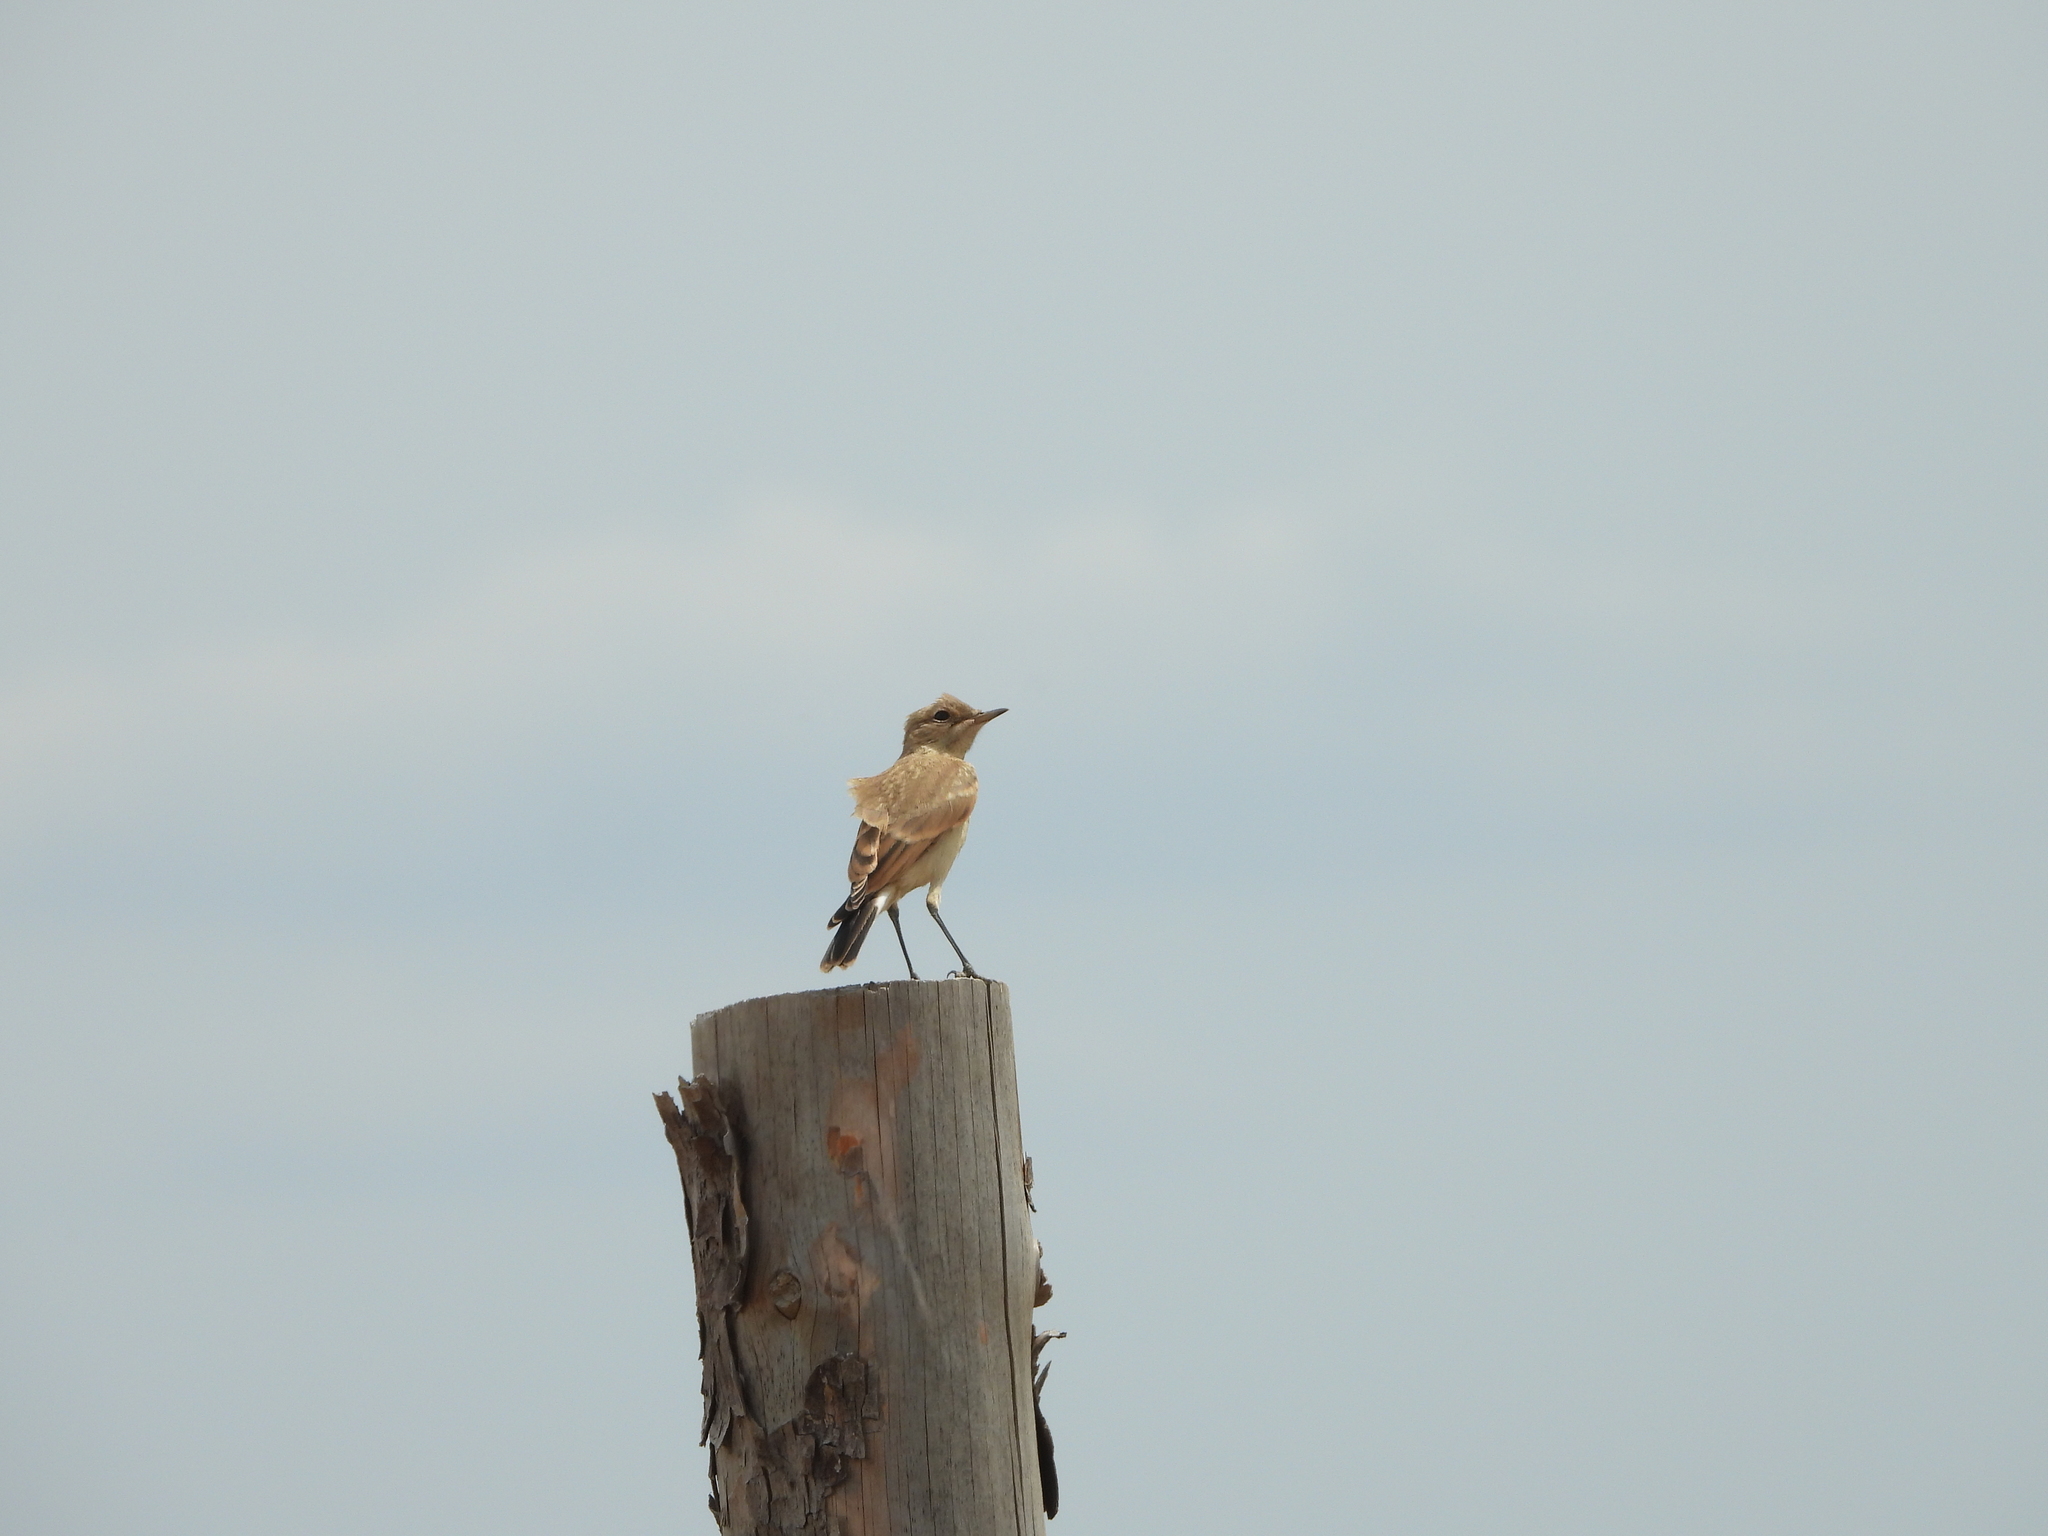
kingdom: Animalia
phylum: Chordata
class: Aves
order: Passeriformes
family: Muscicapidae
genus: Oenanthe
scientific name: Oenanthe isabellina
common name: Isabelline wheatear
